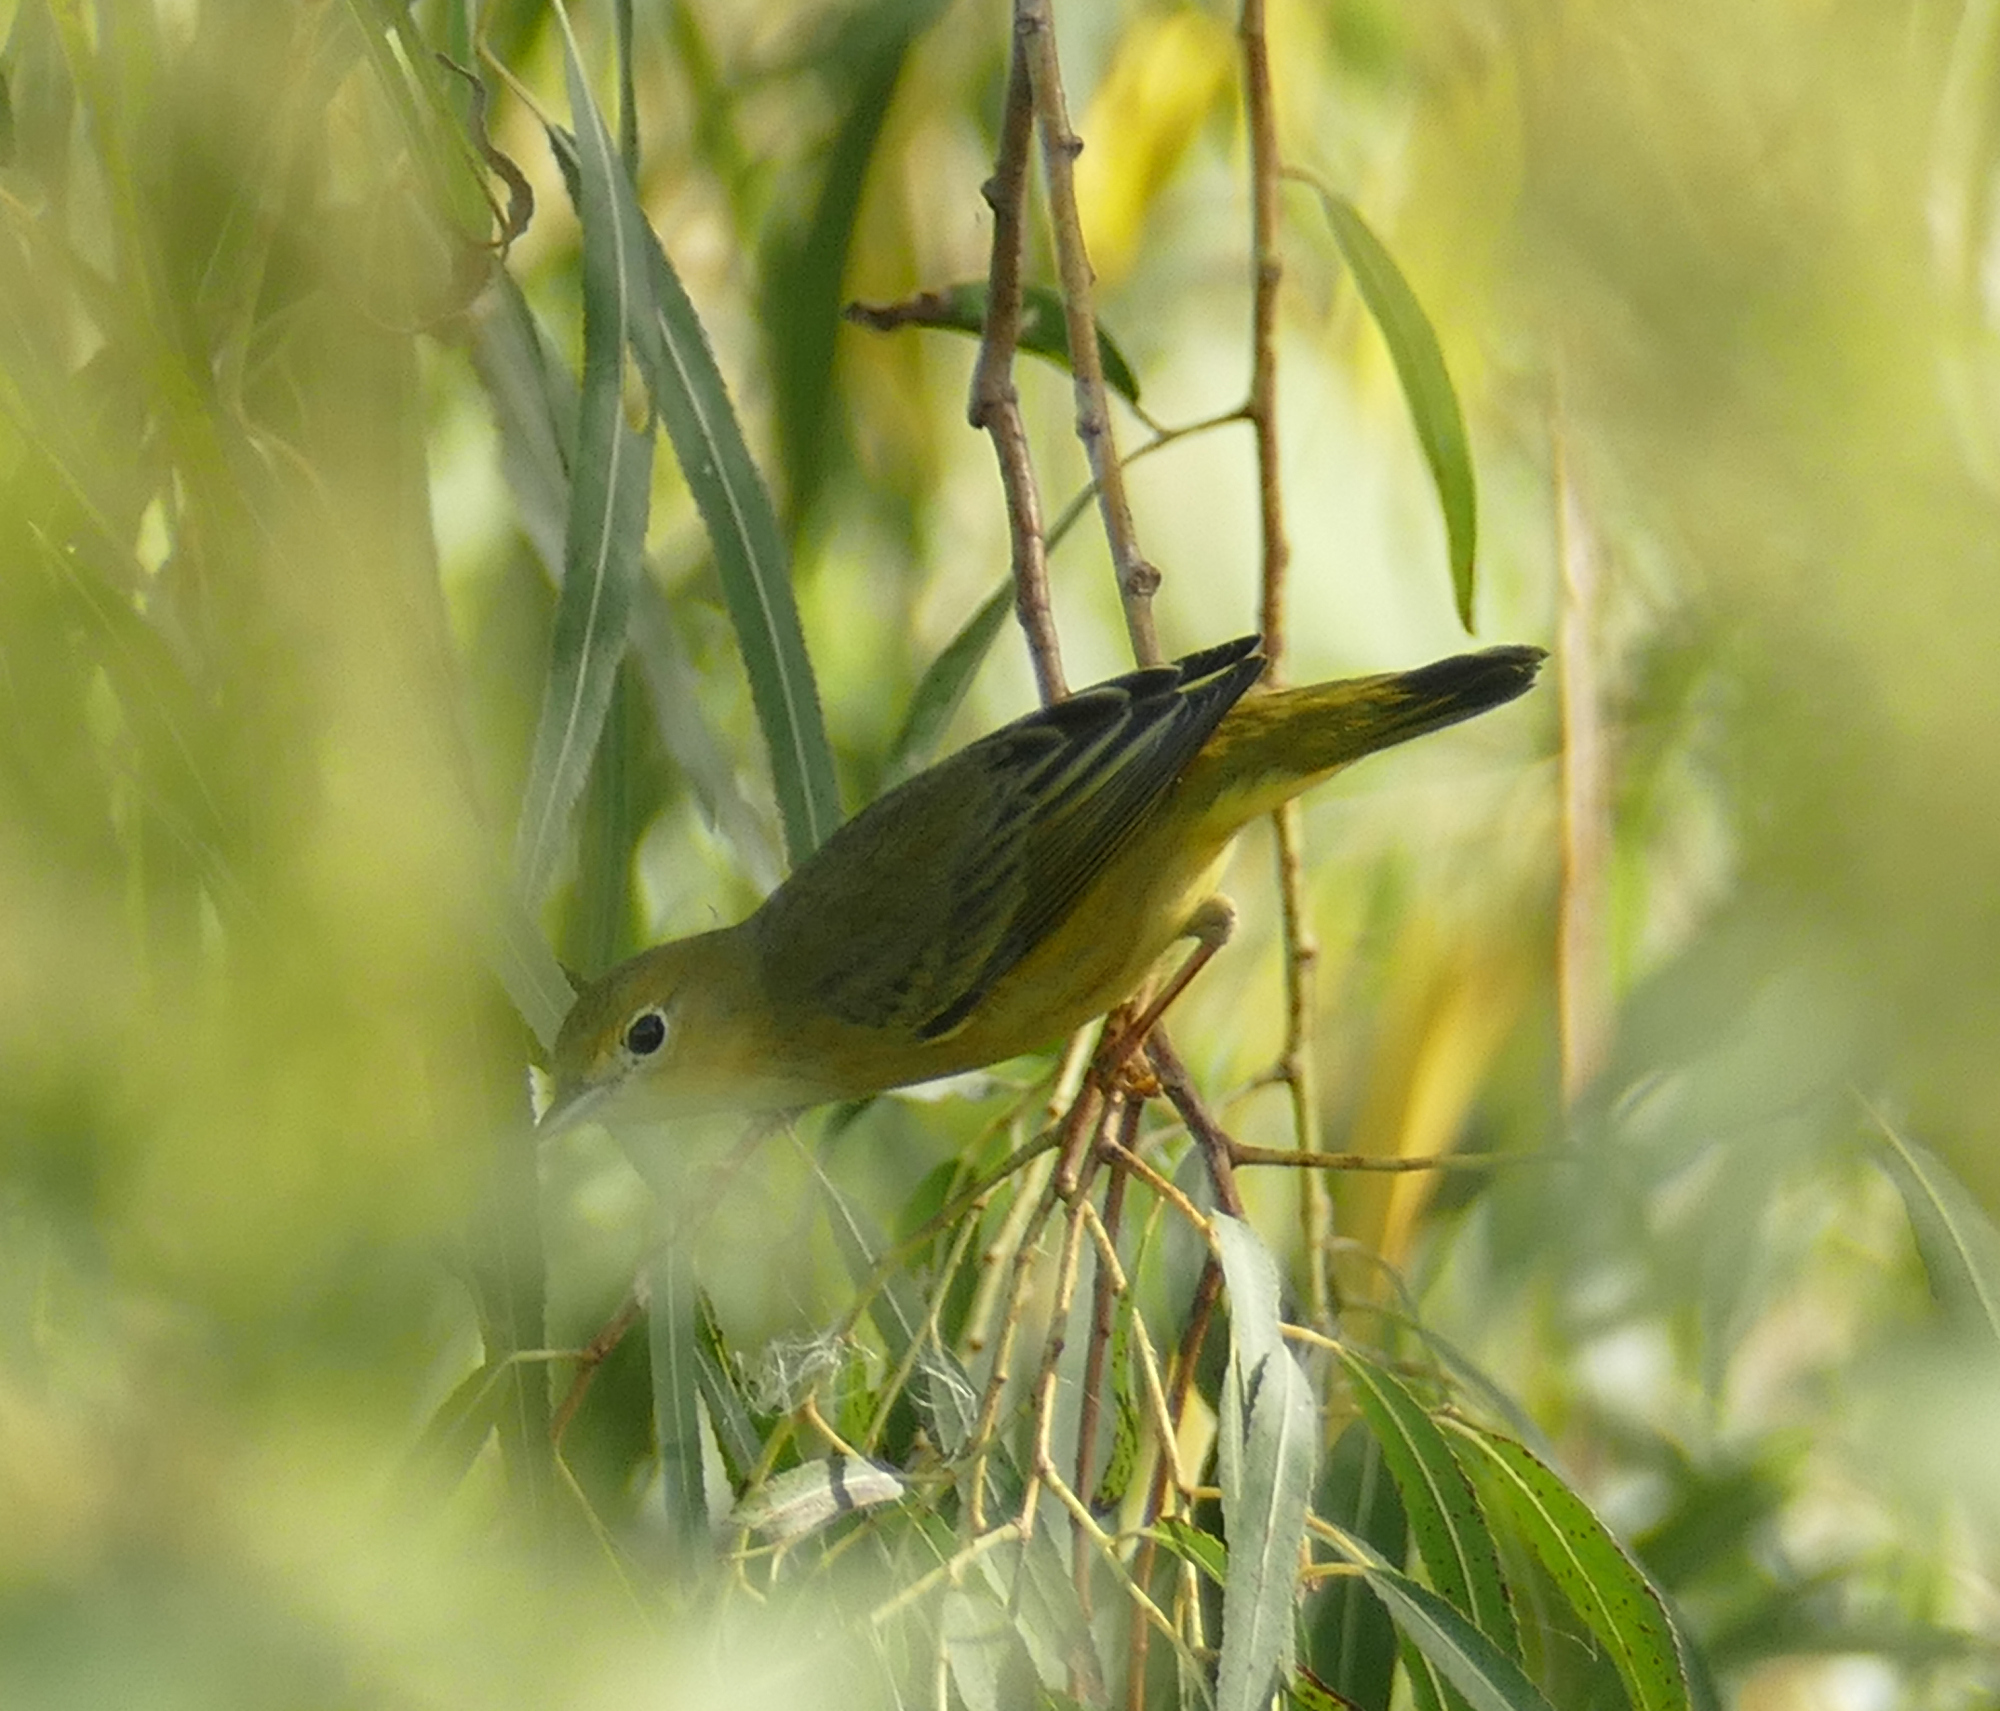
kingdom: Animalia
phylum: Chordata
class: Aves
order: Passeriformes
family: Parulidae
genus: Setophaga
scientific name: Setophaga petechia
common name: Yellow warbler
